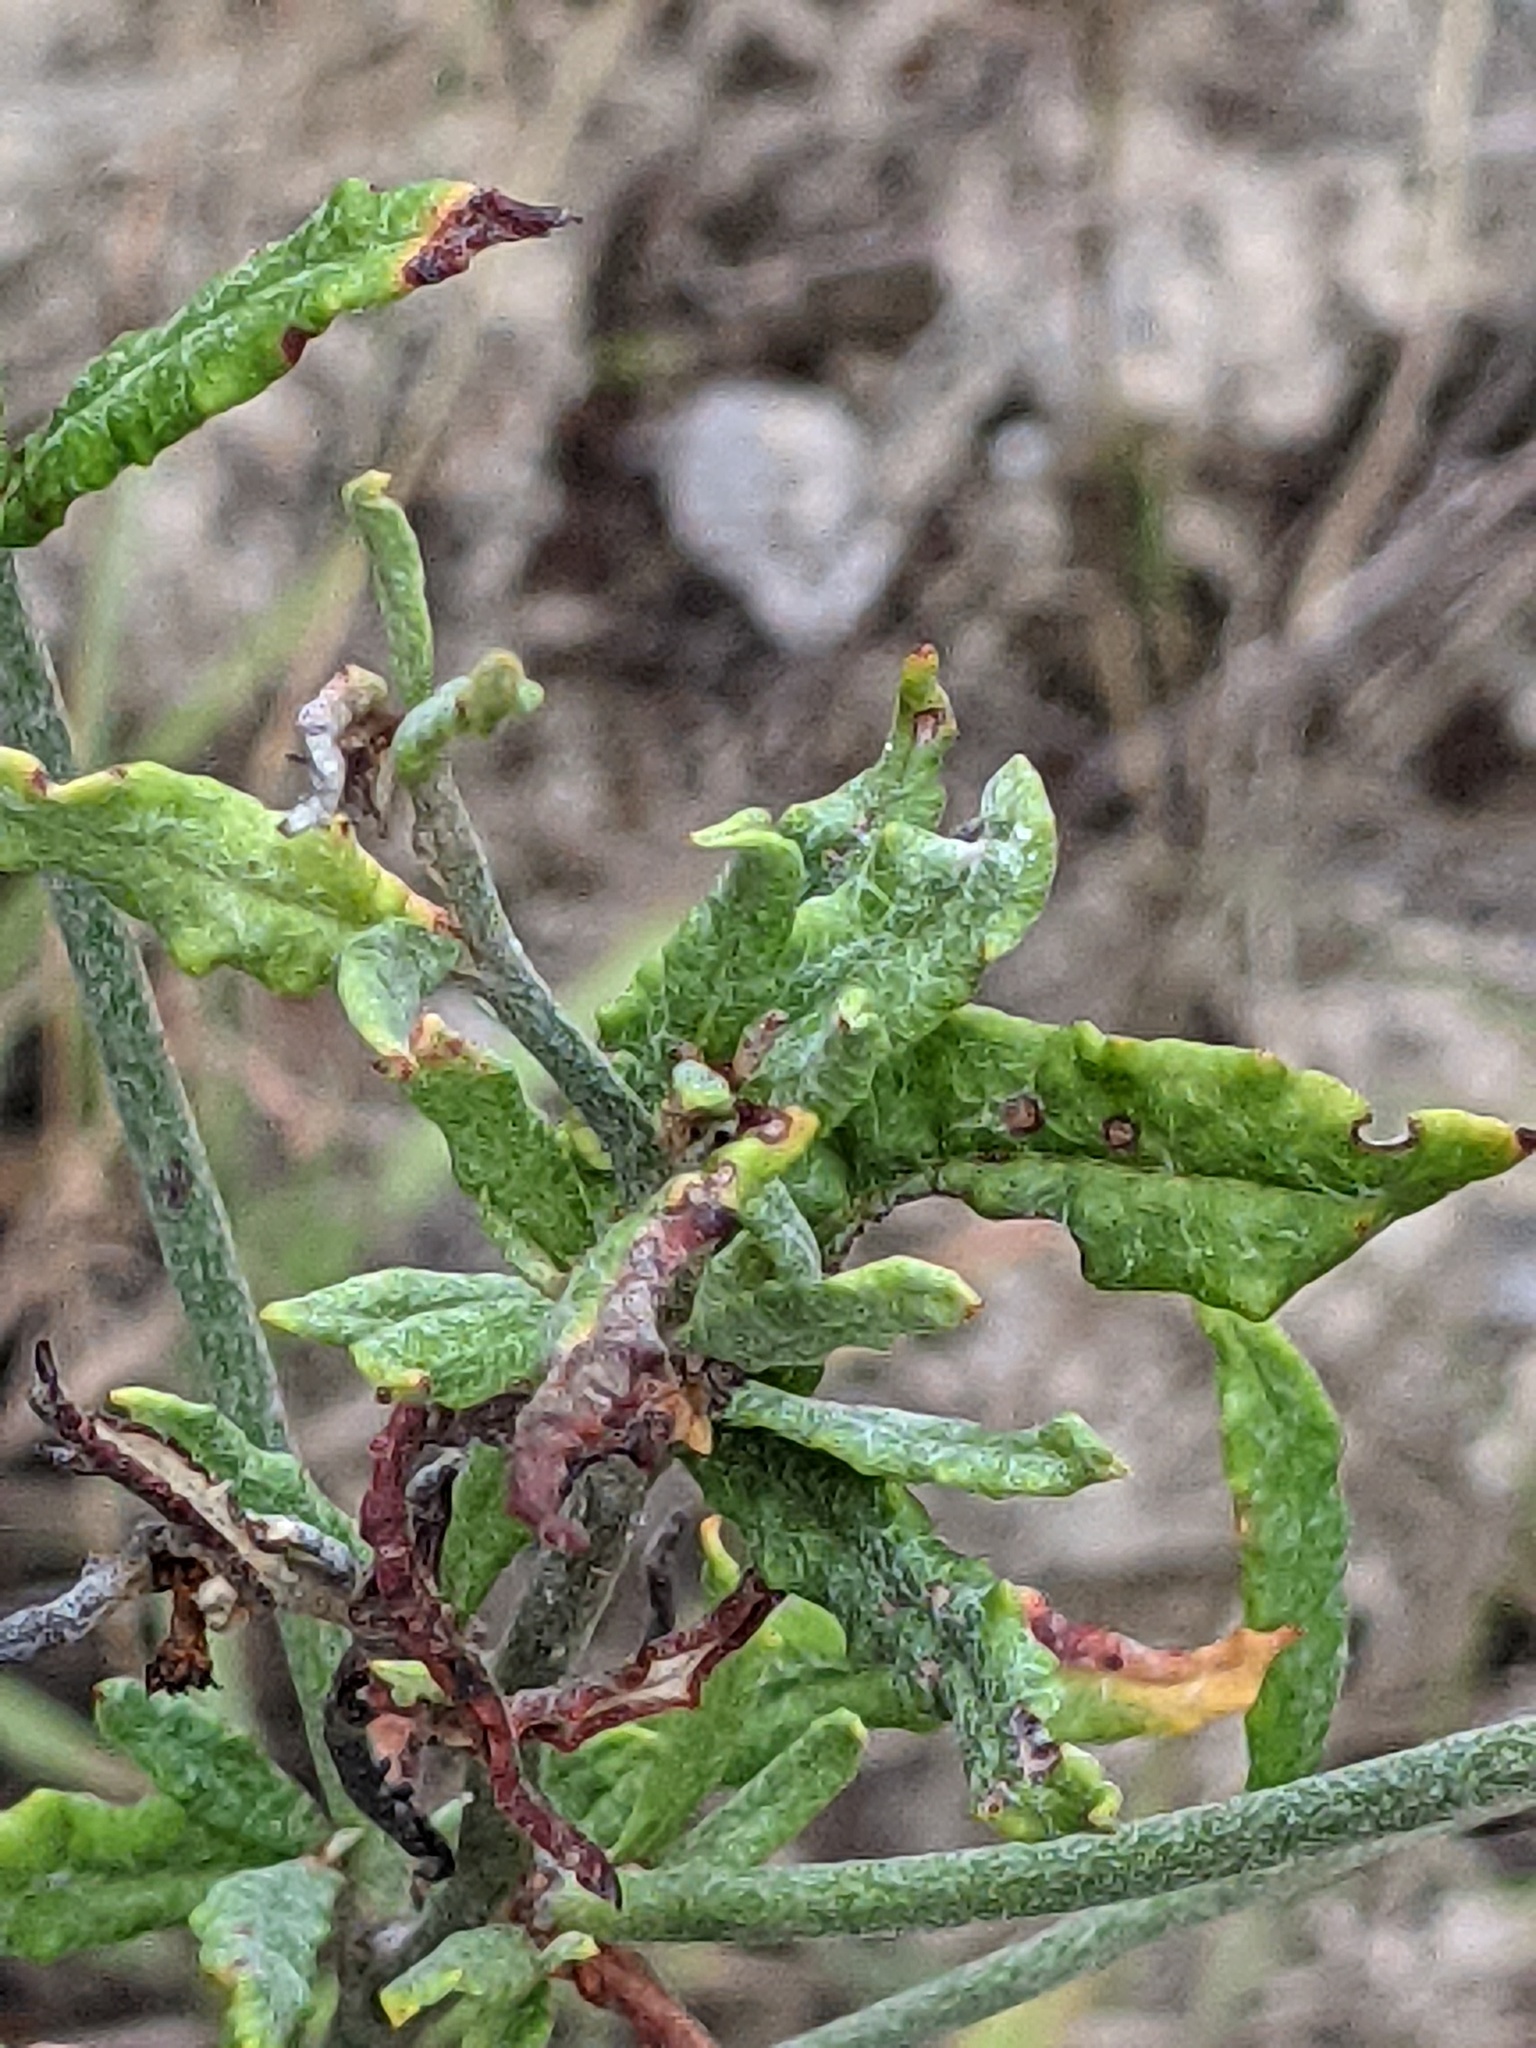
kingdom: Plantae
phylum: Tracheophyta
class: Magnoliopsida
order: Caryophyllales
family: Polygonaceae
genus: Eriogonum
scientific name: Eriogonum multiflorum
